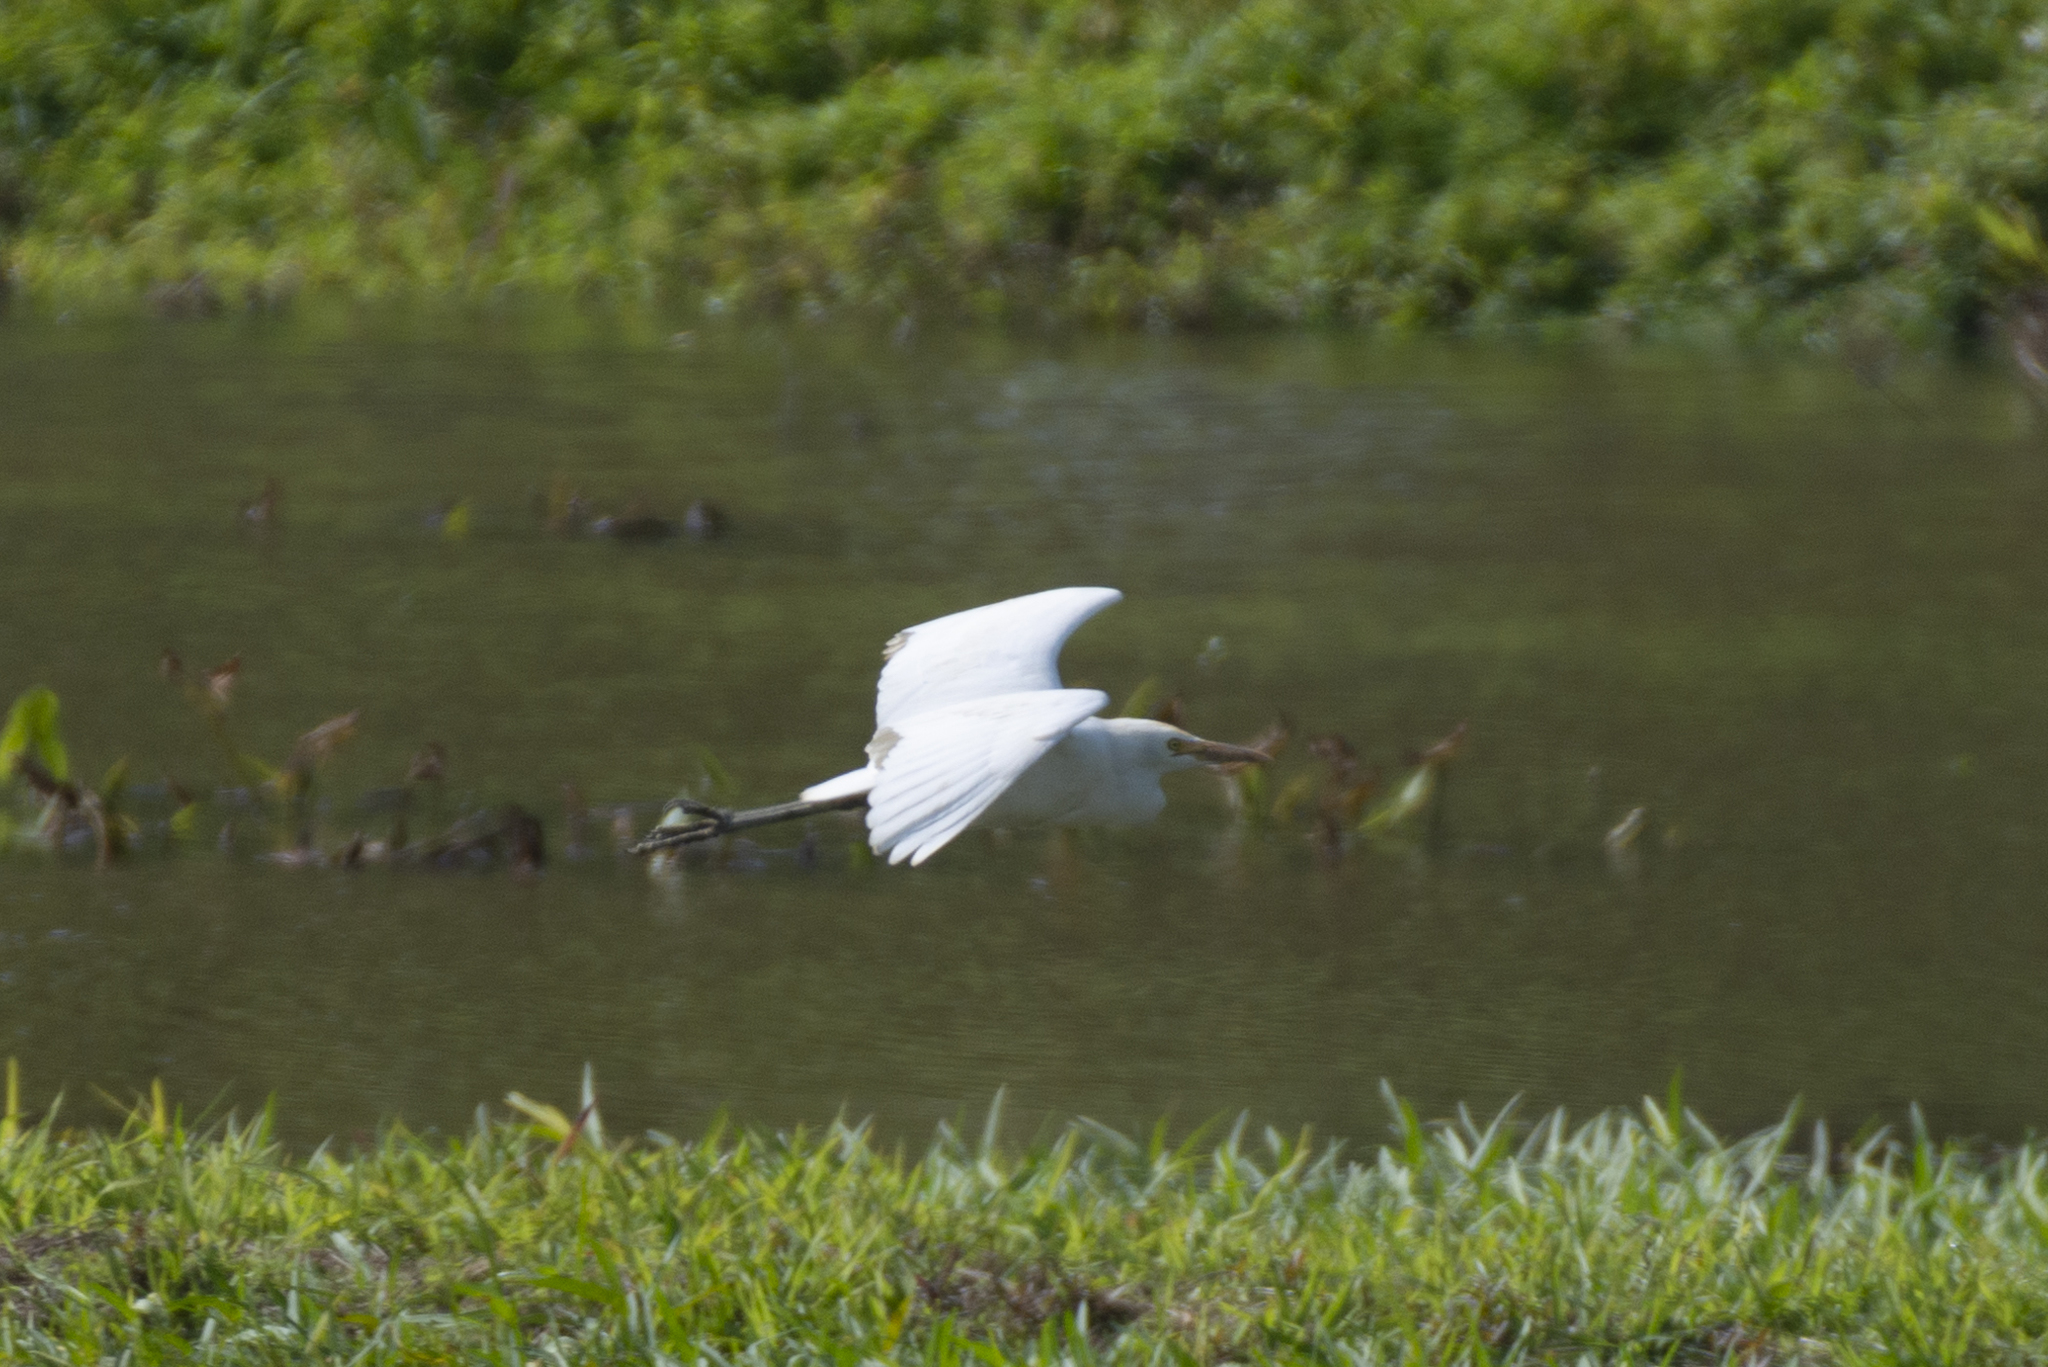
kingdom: Animalia
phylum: Chordata
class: Aves
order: Pelecaniformes
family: Ardeidae
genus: Bubulcus
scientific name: Bubulcus coromandus
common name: Eastern cattle egret
